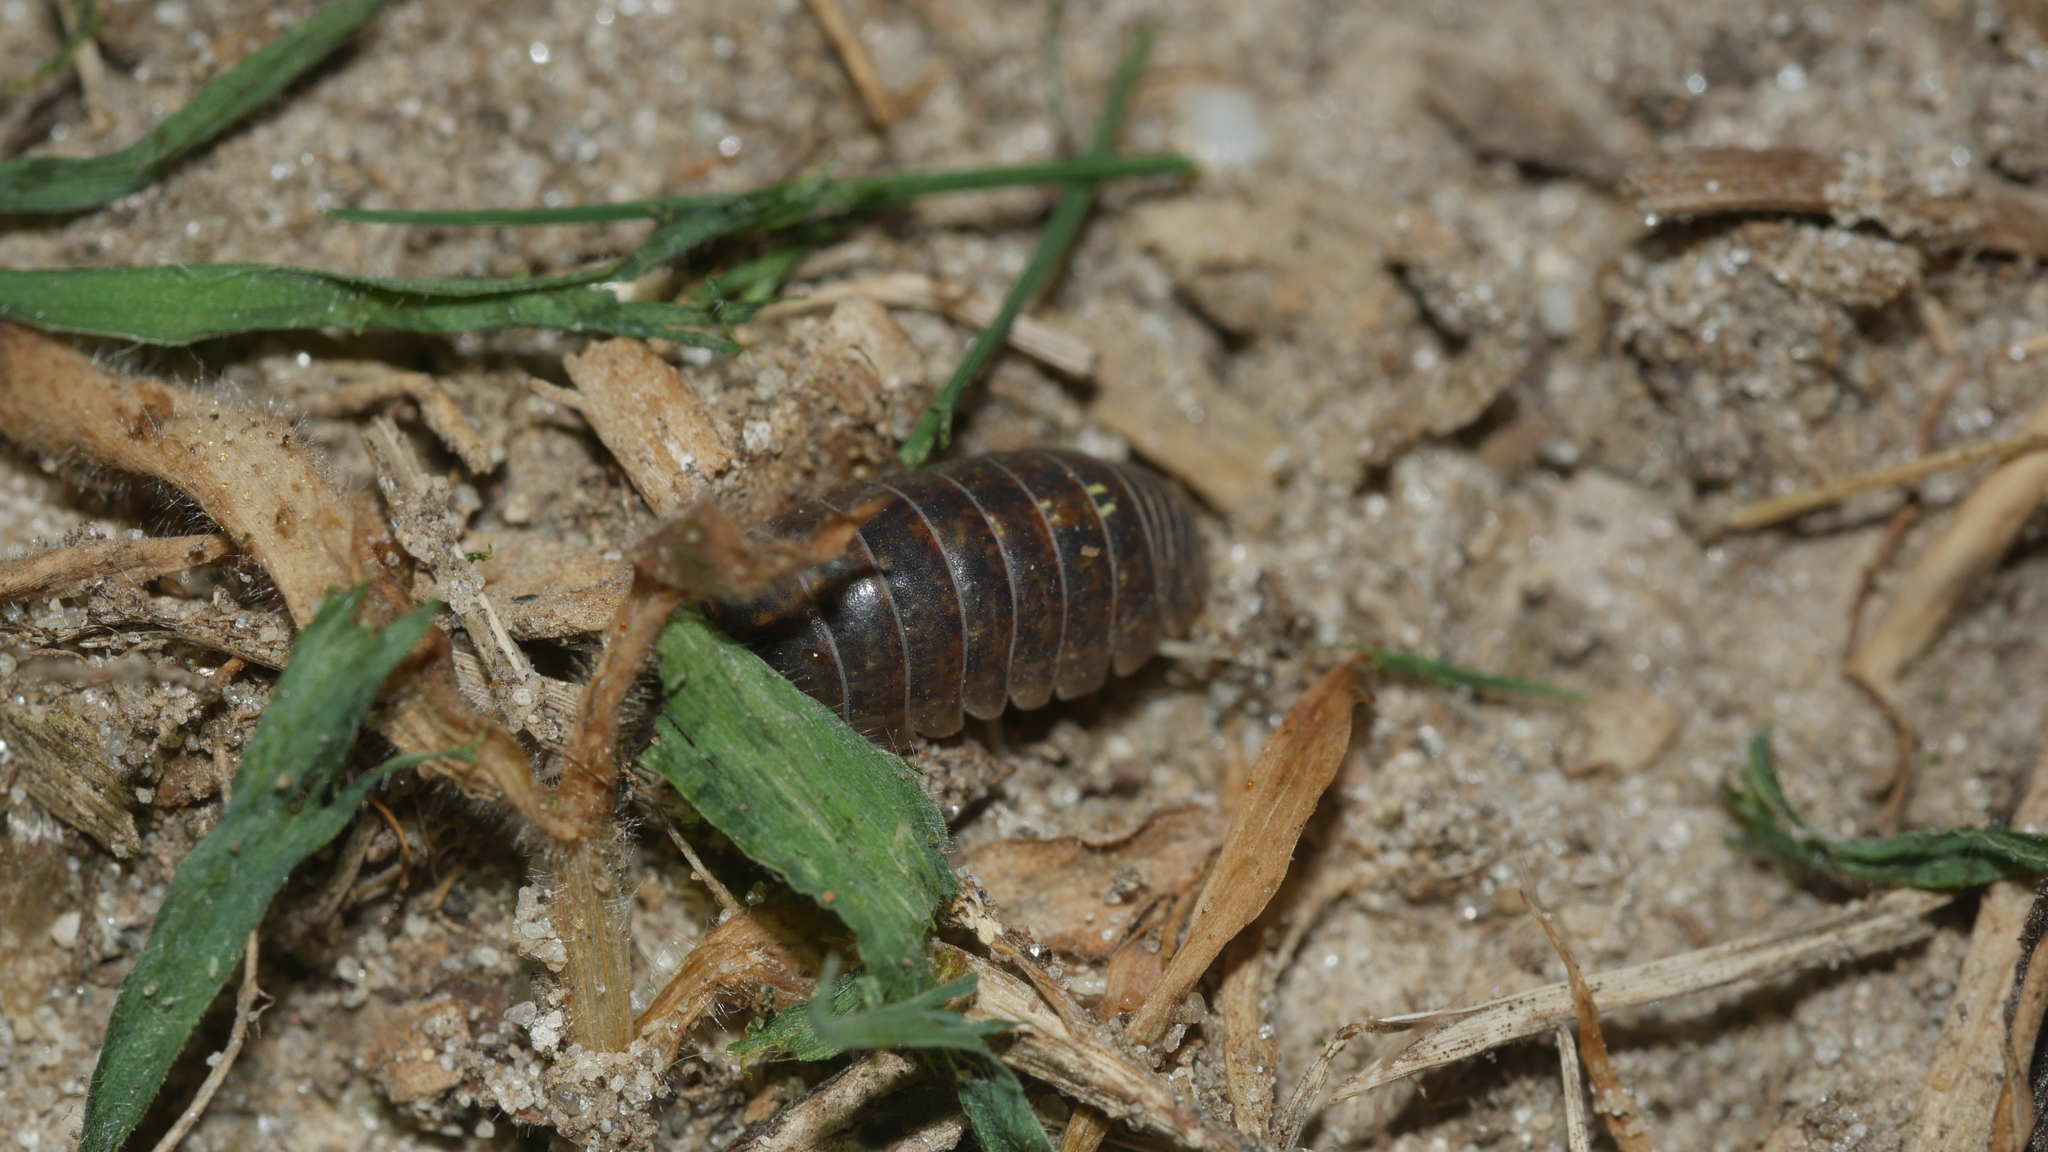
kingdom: Animalia
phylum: Arthropoda
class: Malacostraca
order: Isopoda
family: Armadillidiidae
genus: Armadillidium
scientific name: Armadillidium vulgare
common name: Common pill woodlouse
